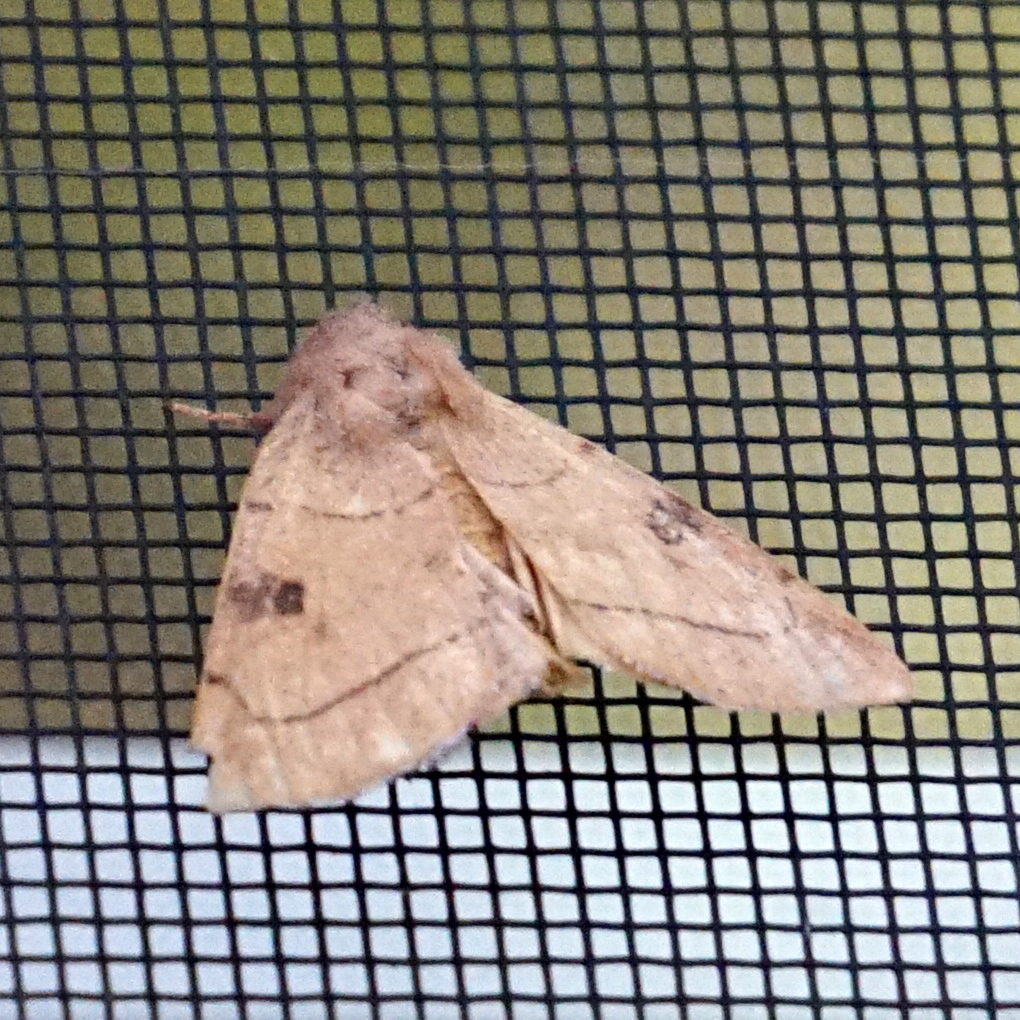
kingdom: Animalia
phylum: Arthropoda
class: Insecta
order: Lepidoptera
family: Noctuidae
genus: Choephora
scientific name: Choephora fungorum
